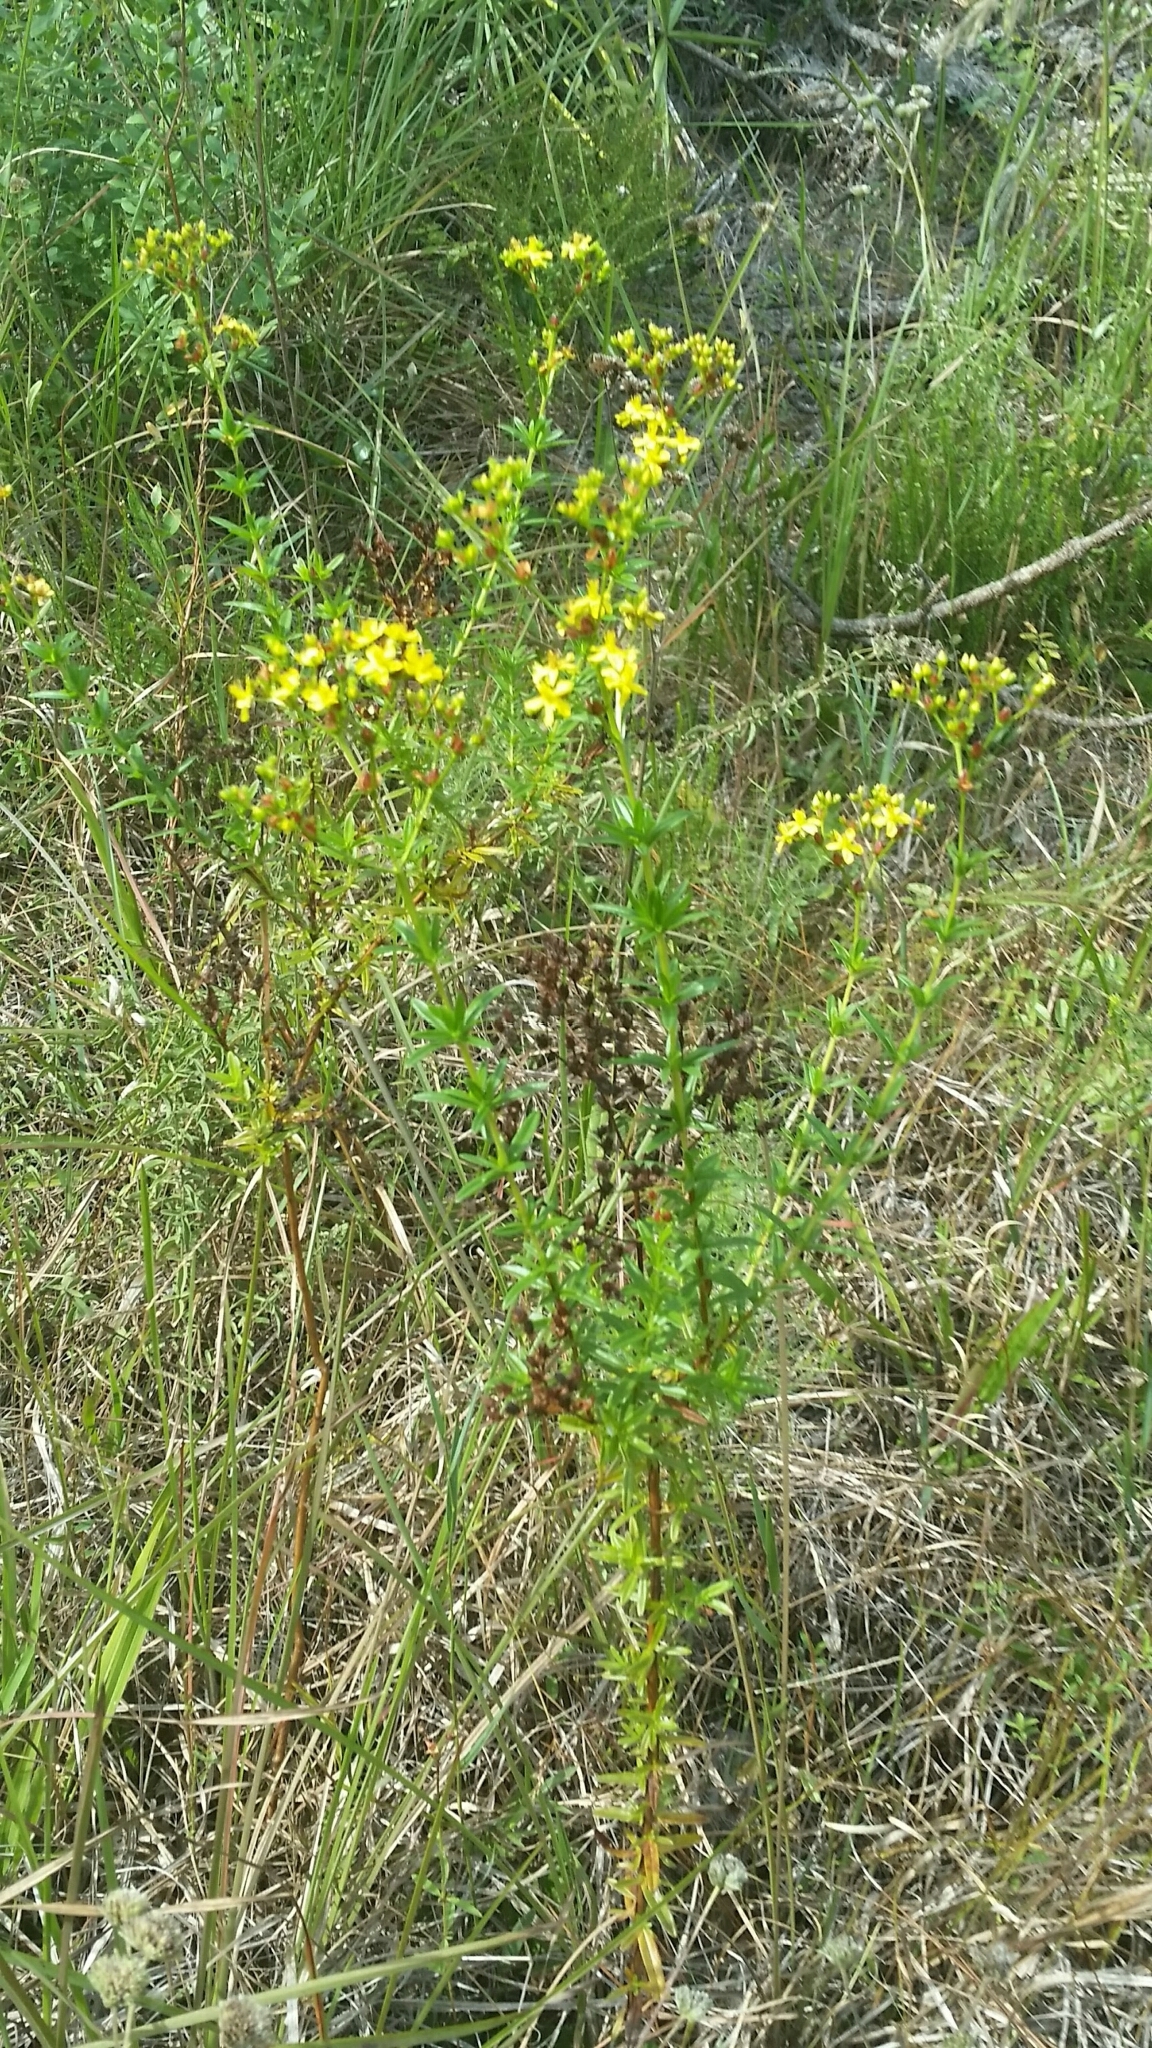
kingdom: Plantae
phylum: Tracheophyta
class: Magnoliopsida
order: Malpighiales
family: Hypericaceae
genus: Hypericum
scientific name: Hypericum cistifolium
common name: Round-pod st. john's-wort
